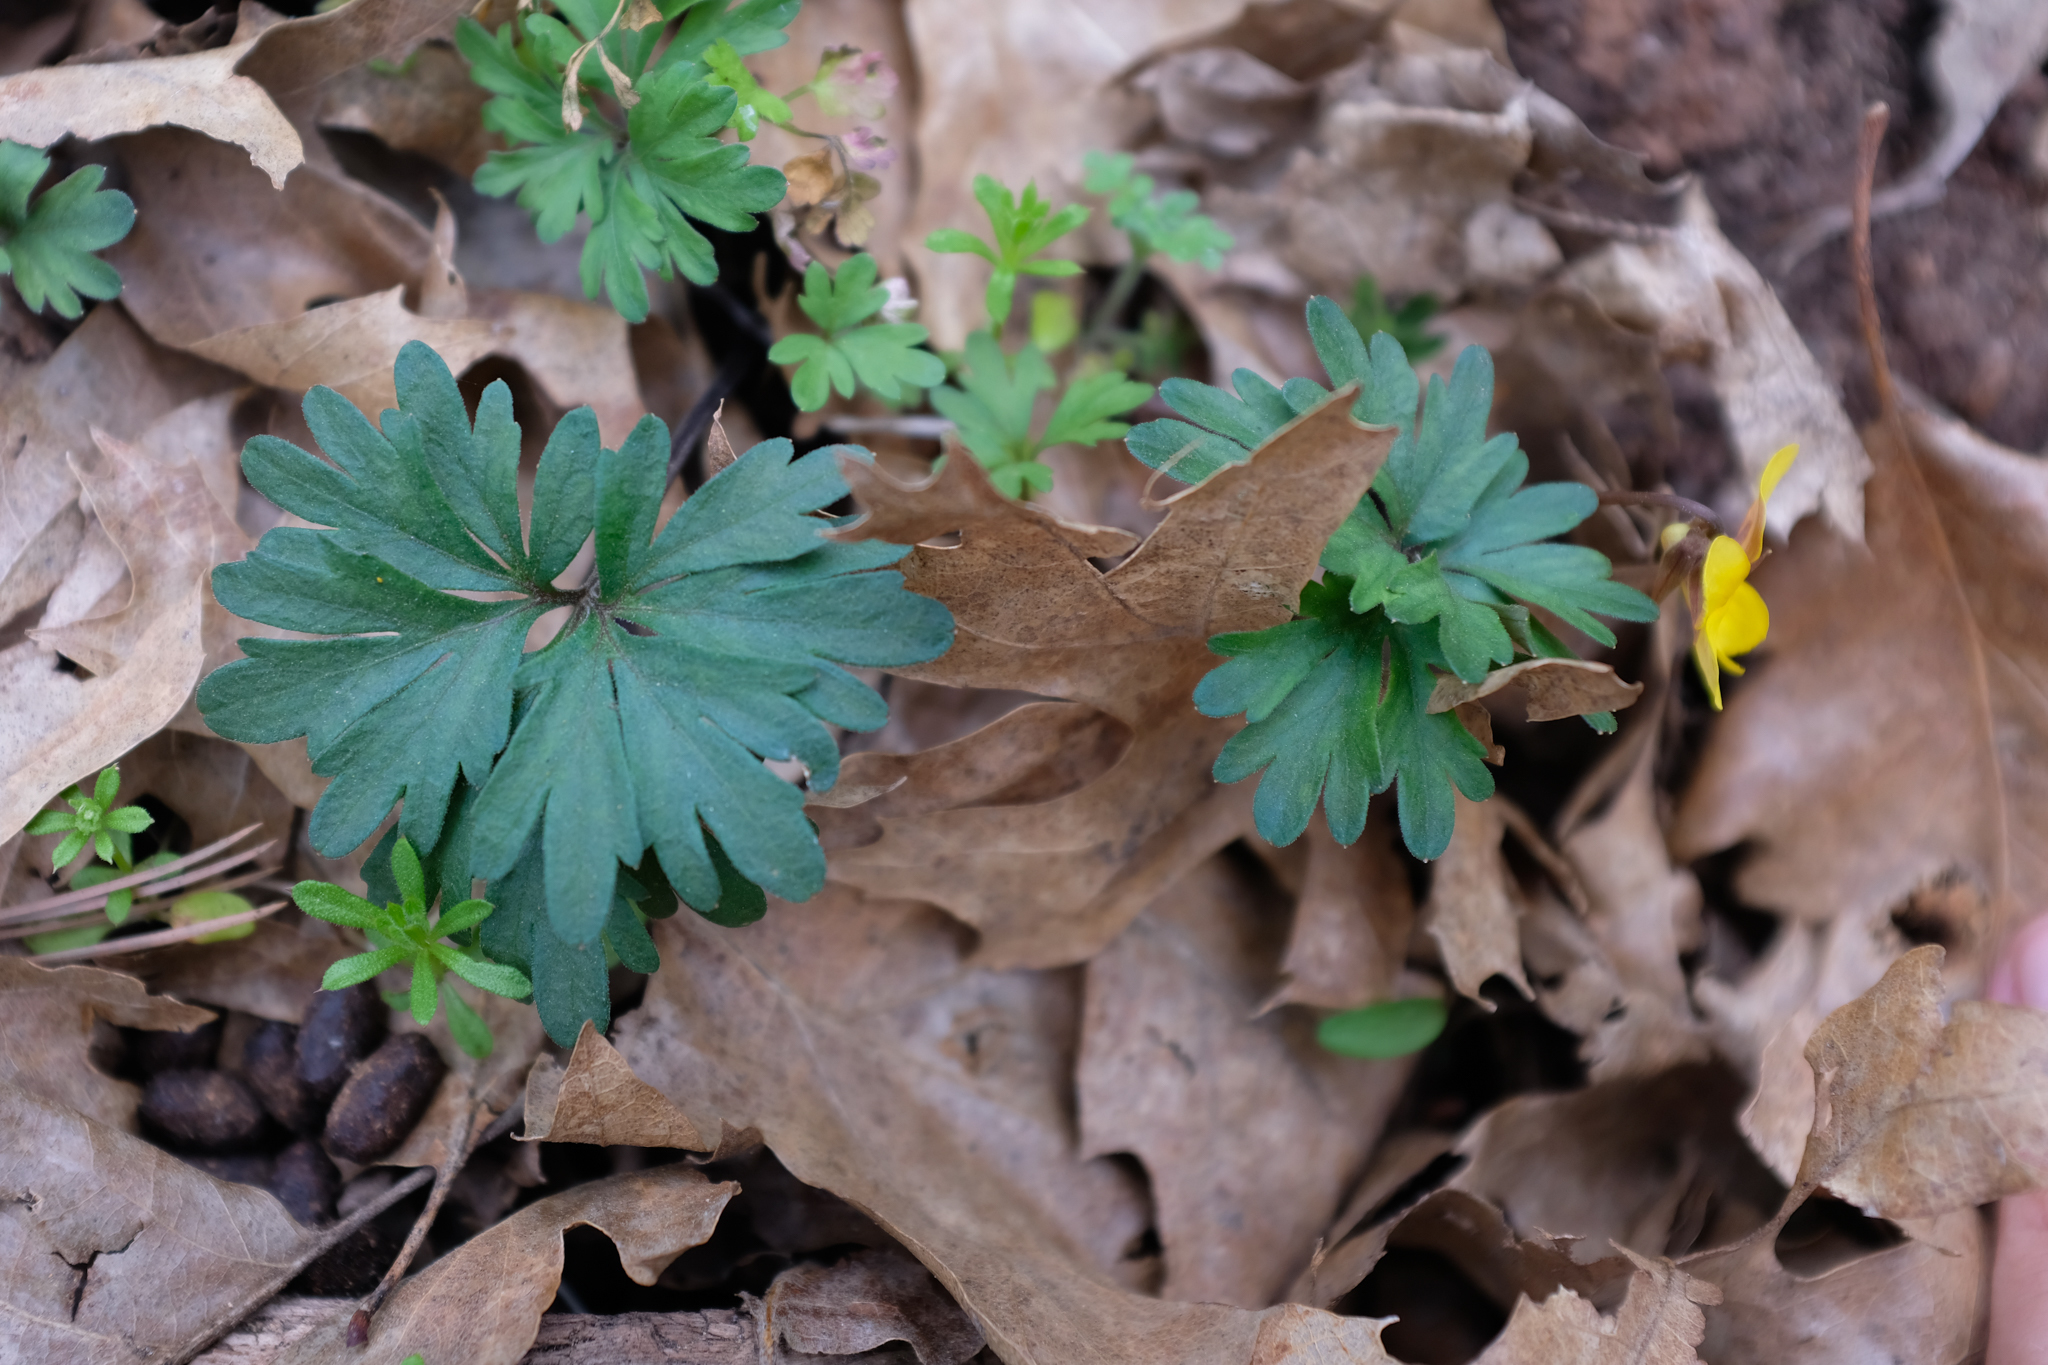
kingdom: Plantae
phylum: Tracheophyta
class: Magnoliopsida
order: Malpighiales
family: Violaceae
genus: Viola
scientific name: Viola sheltonii
